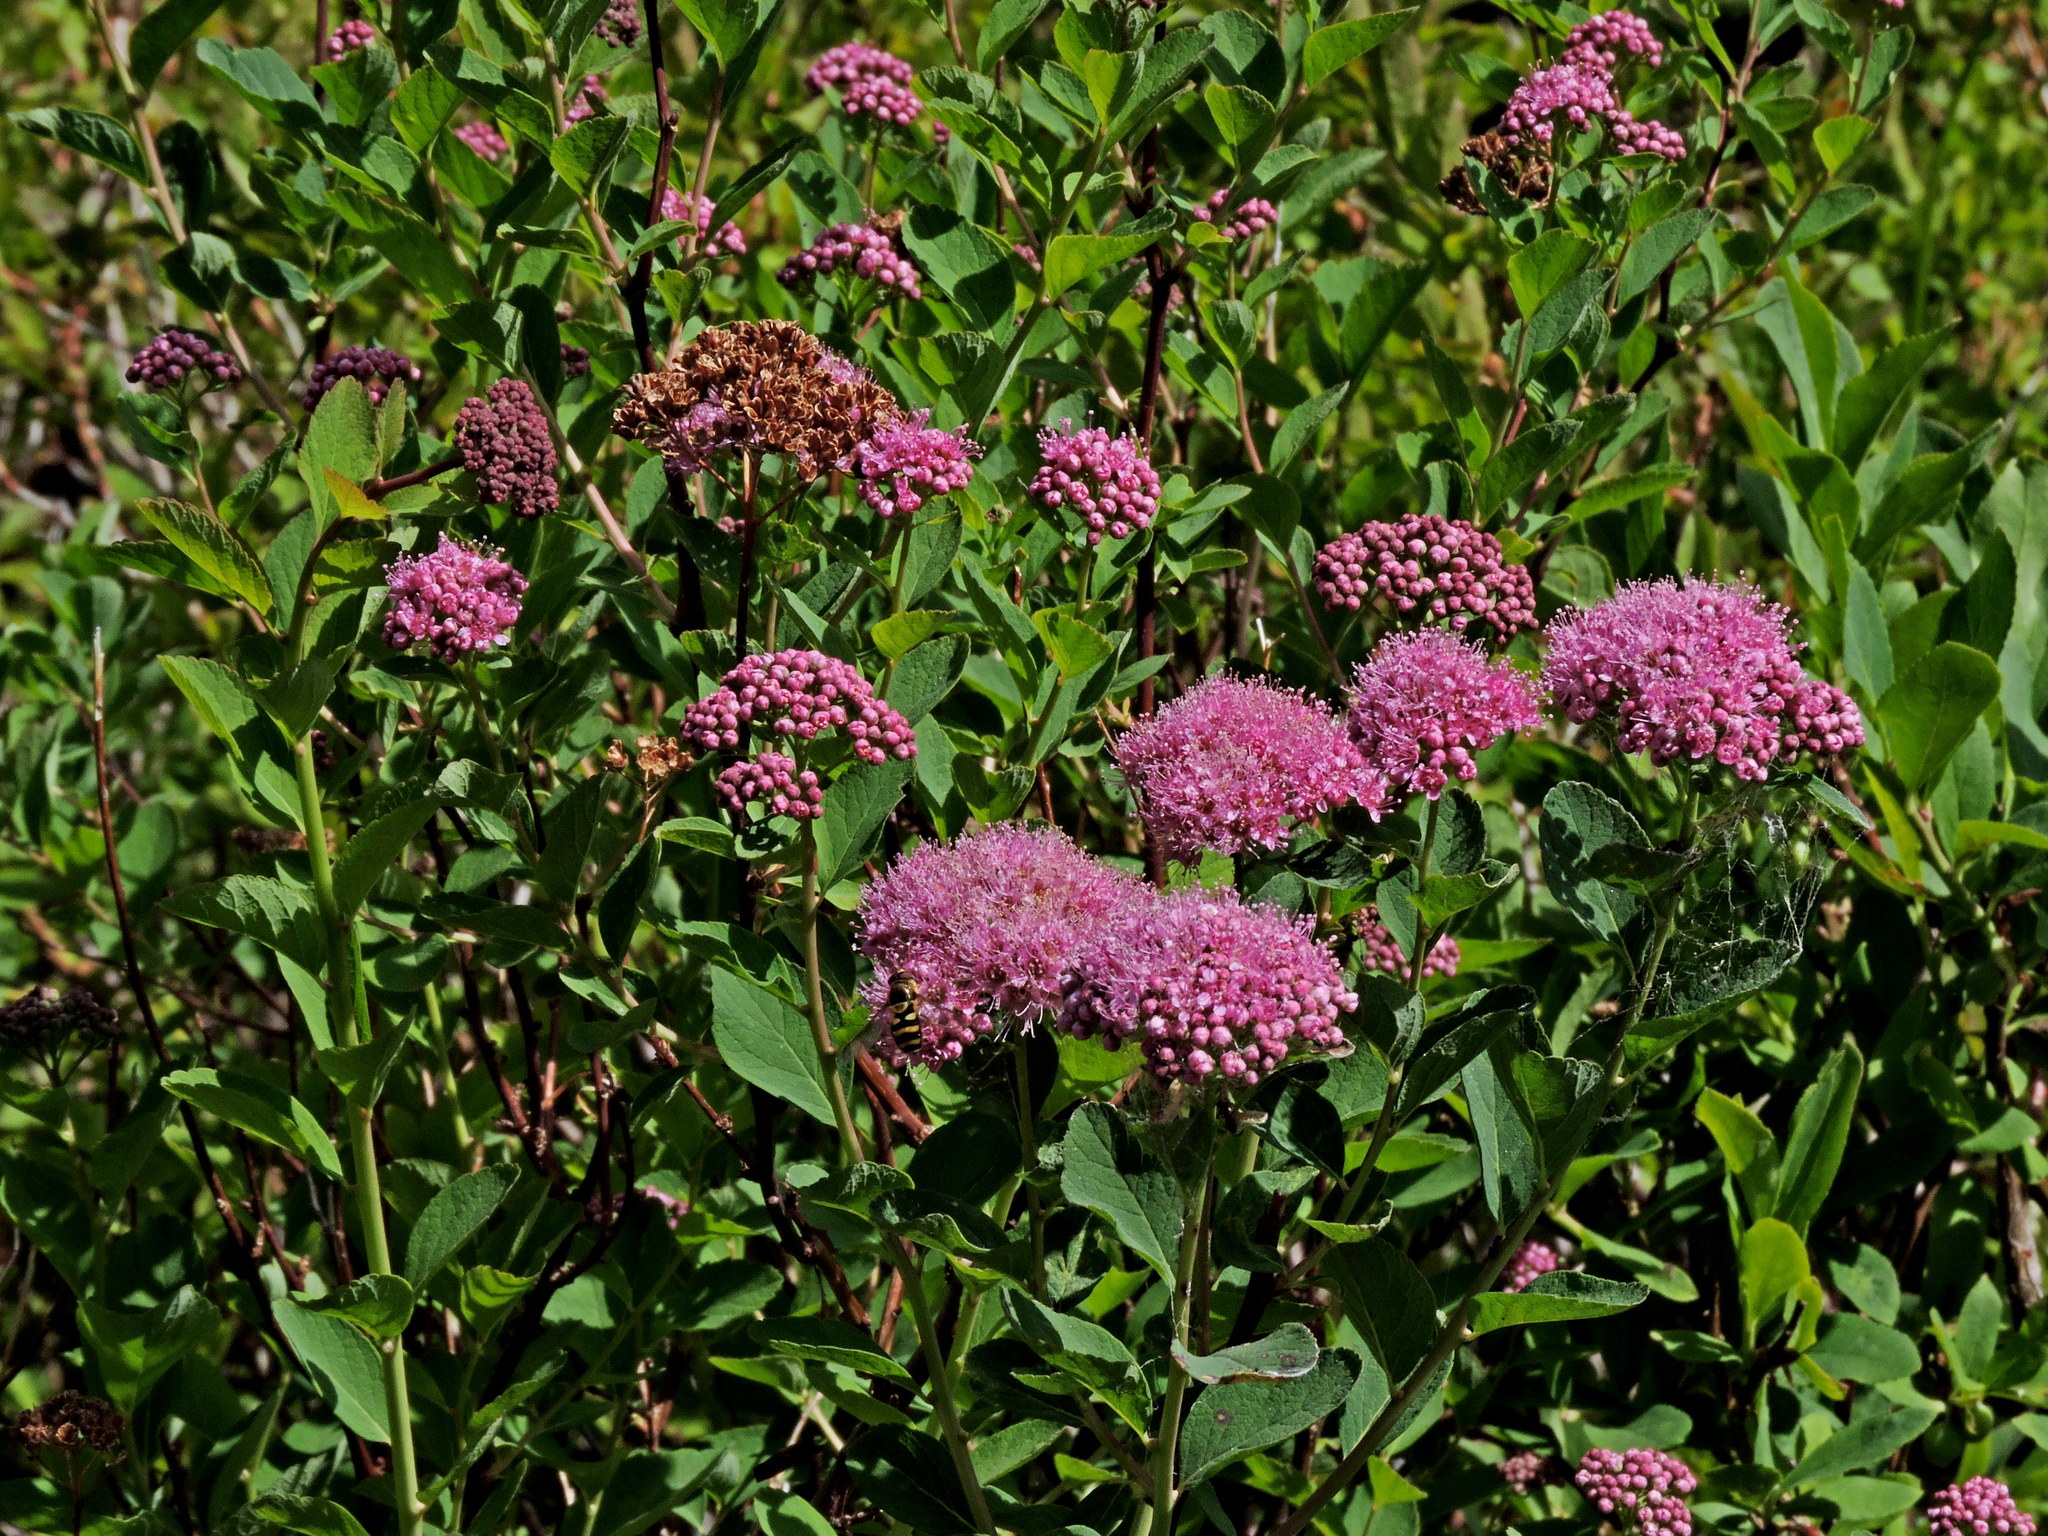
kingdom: Plantae
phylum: Tracheophyta
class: Magnoliopsida
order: Rosales
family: Rosaceae
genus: Spiraea
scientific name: Spiraea splendens
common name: Subalpine meadowsweet
